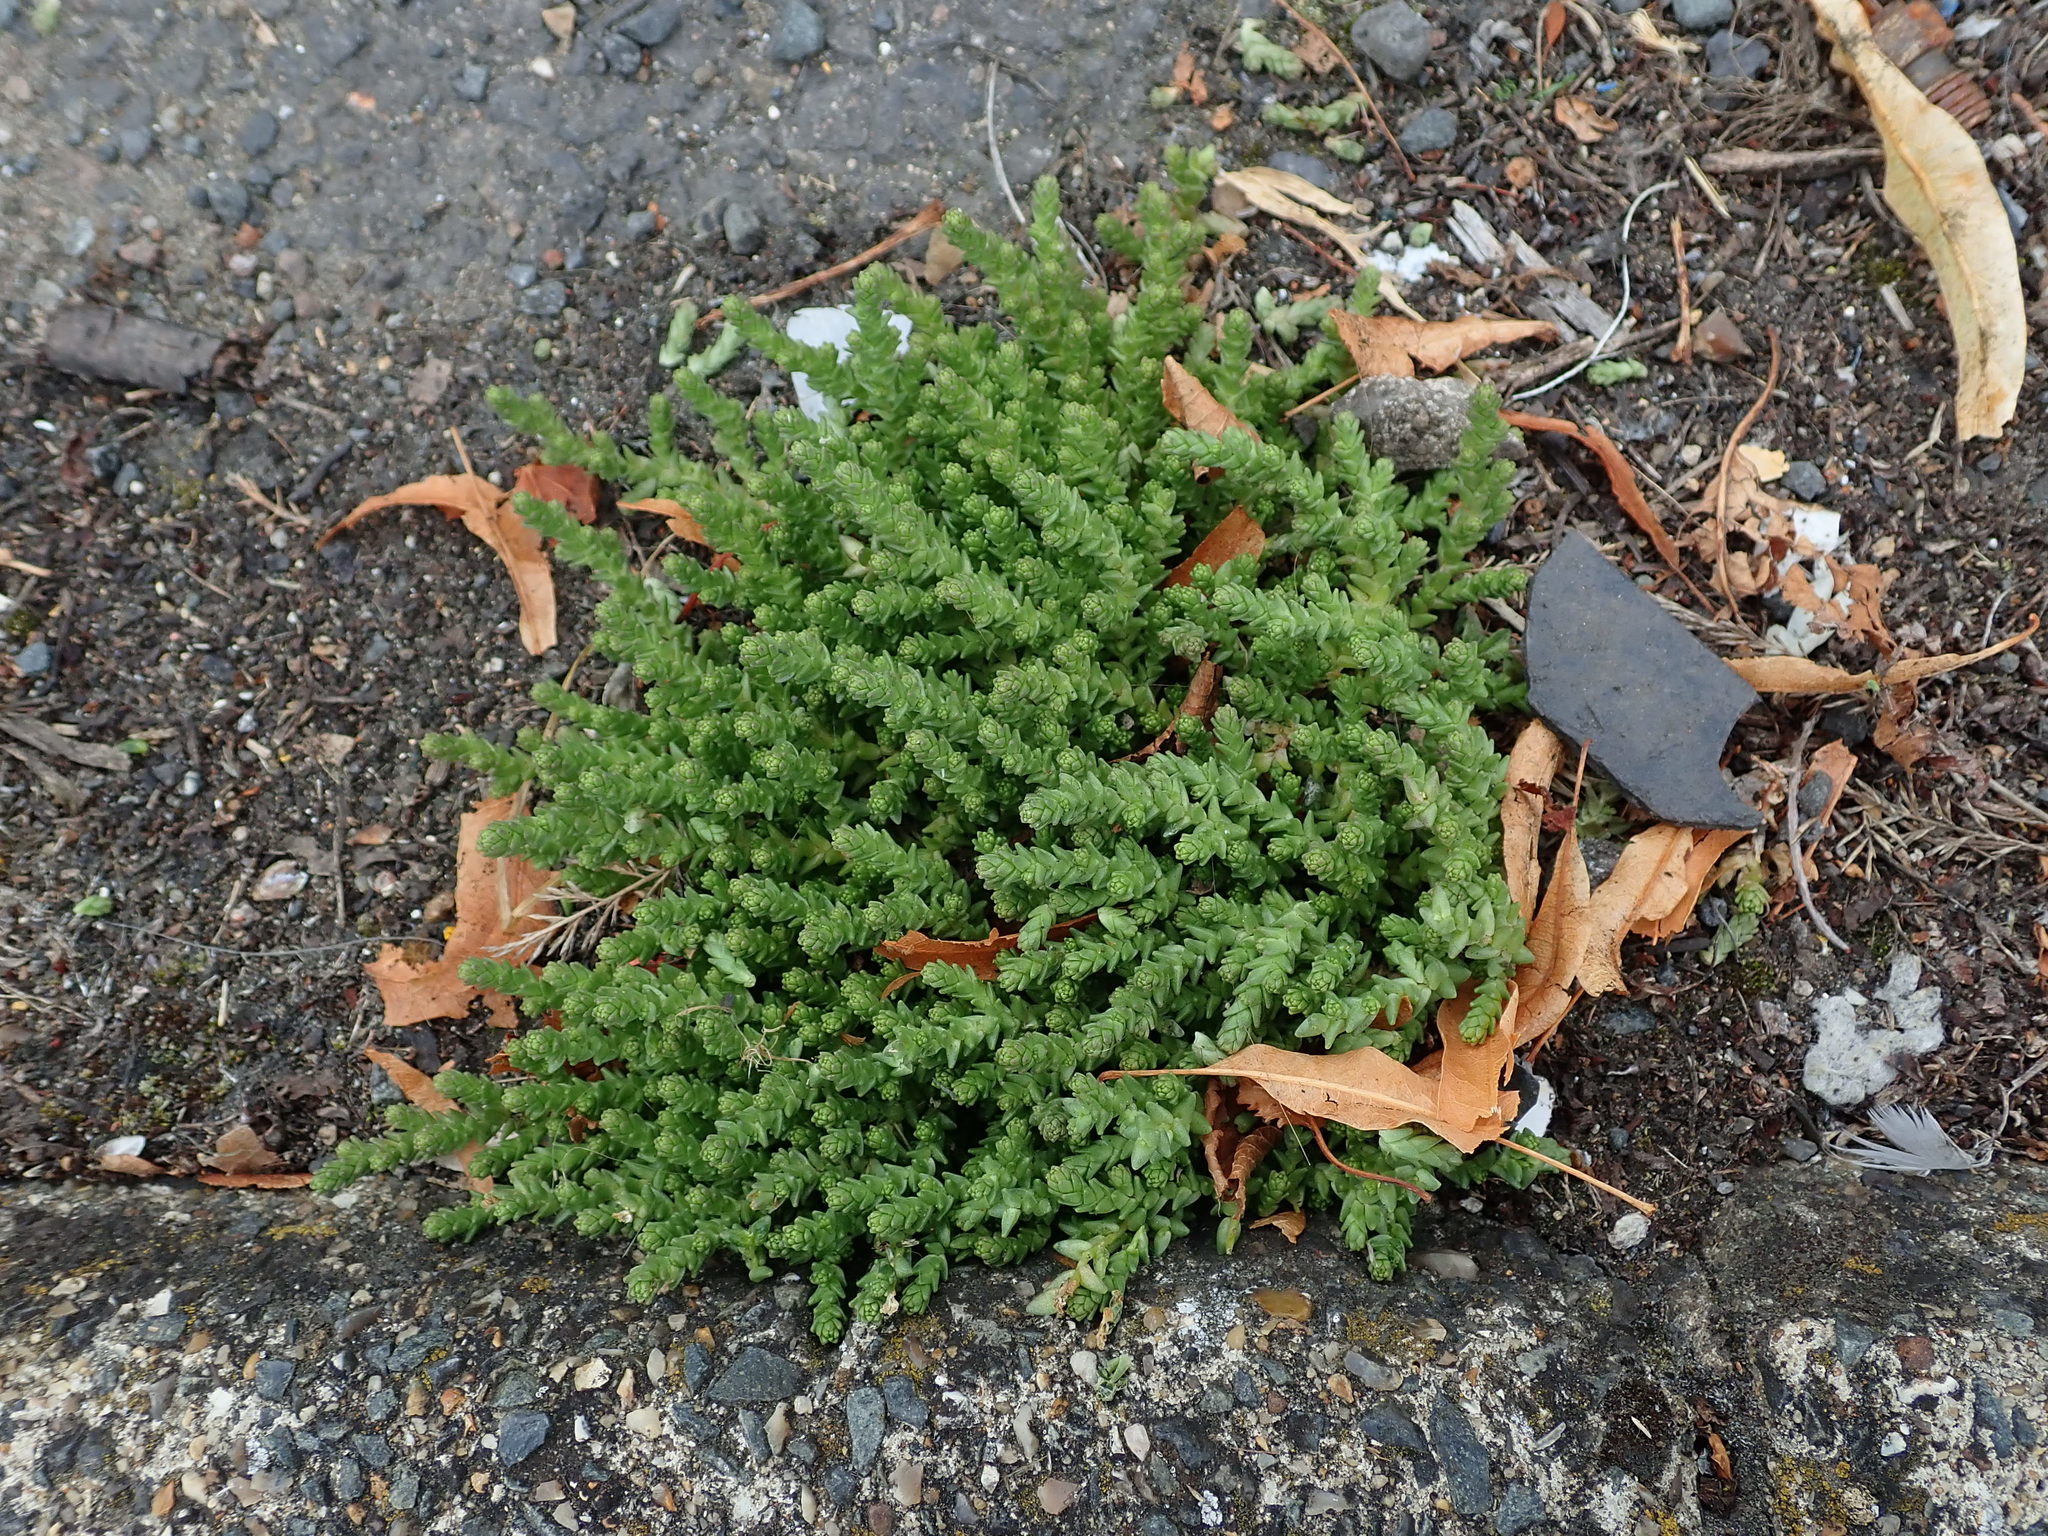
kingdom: Plantae
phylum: Tracheophyta
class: Magnoliopsida
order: Saxifragales
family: Crassulaceae
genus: Sedum
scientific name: Sedum acre
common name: Biting stonecrop
